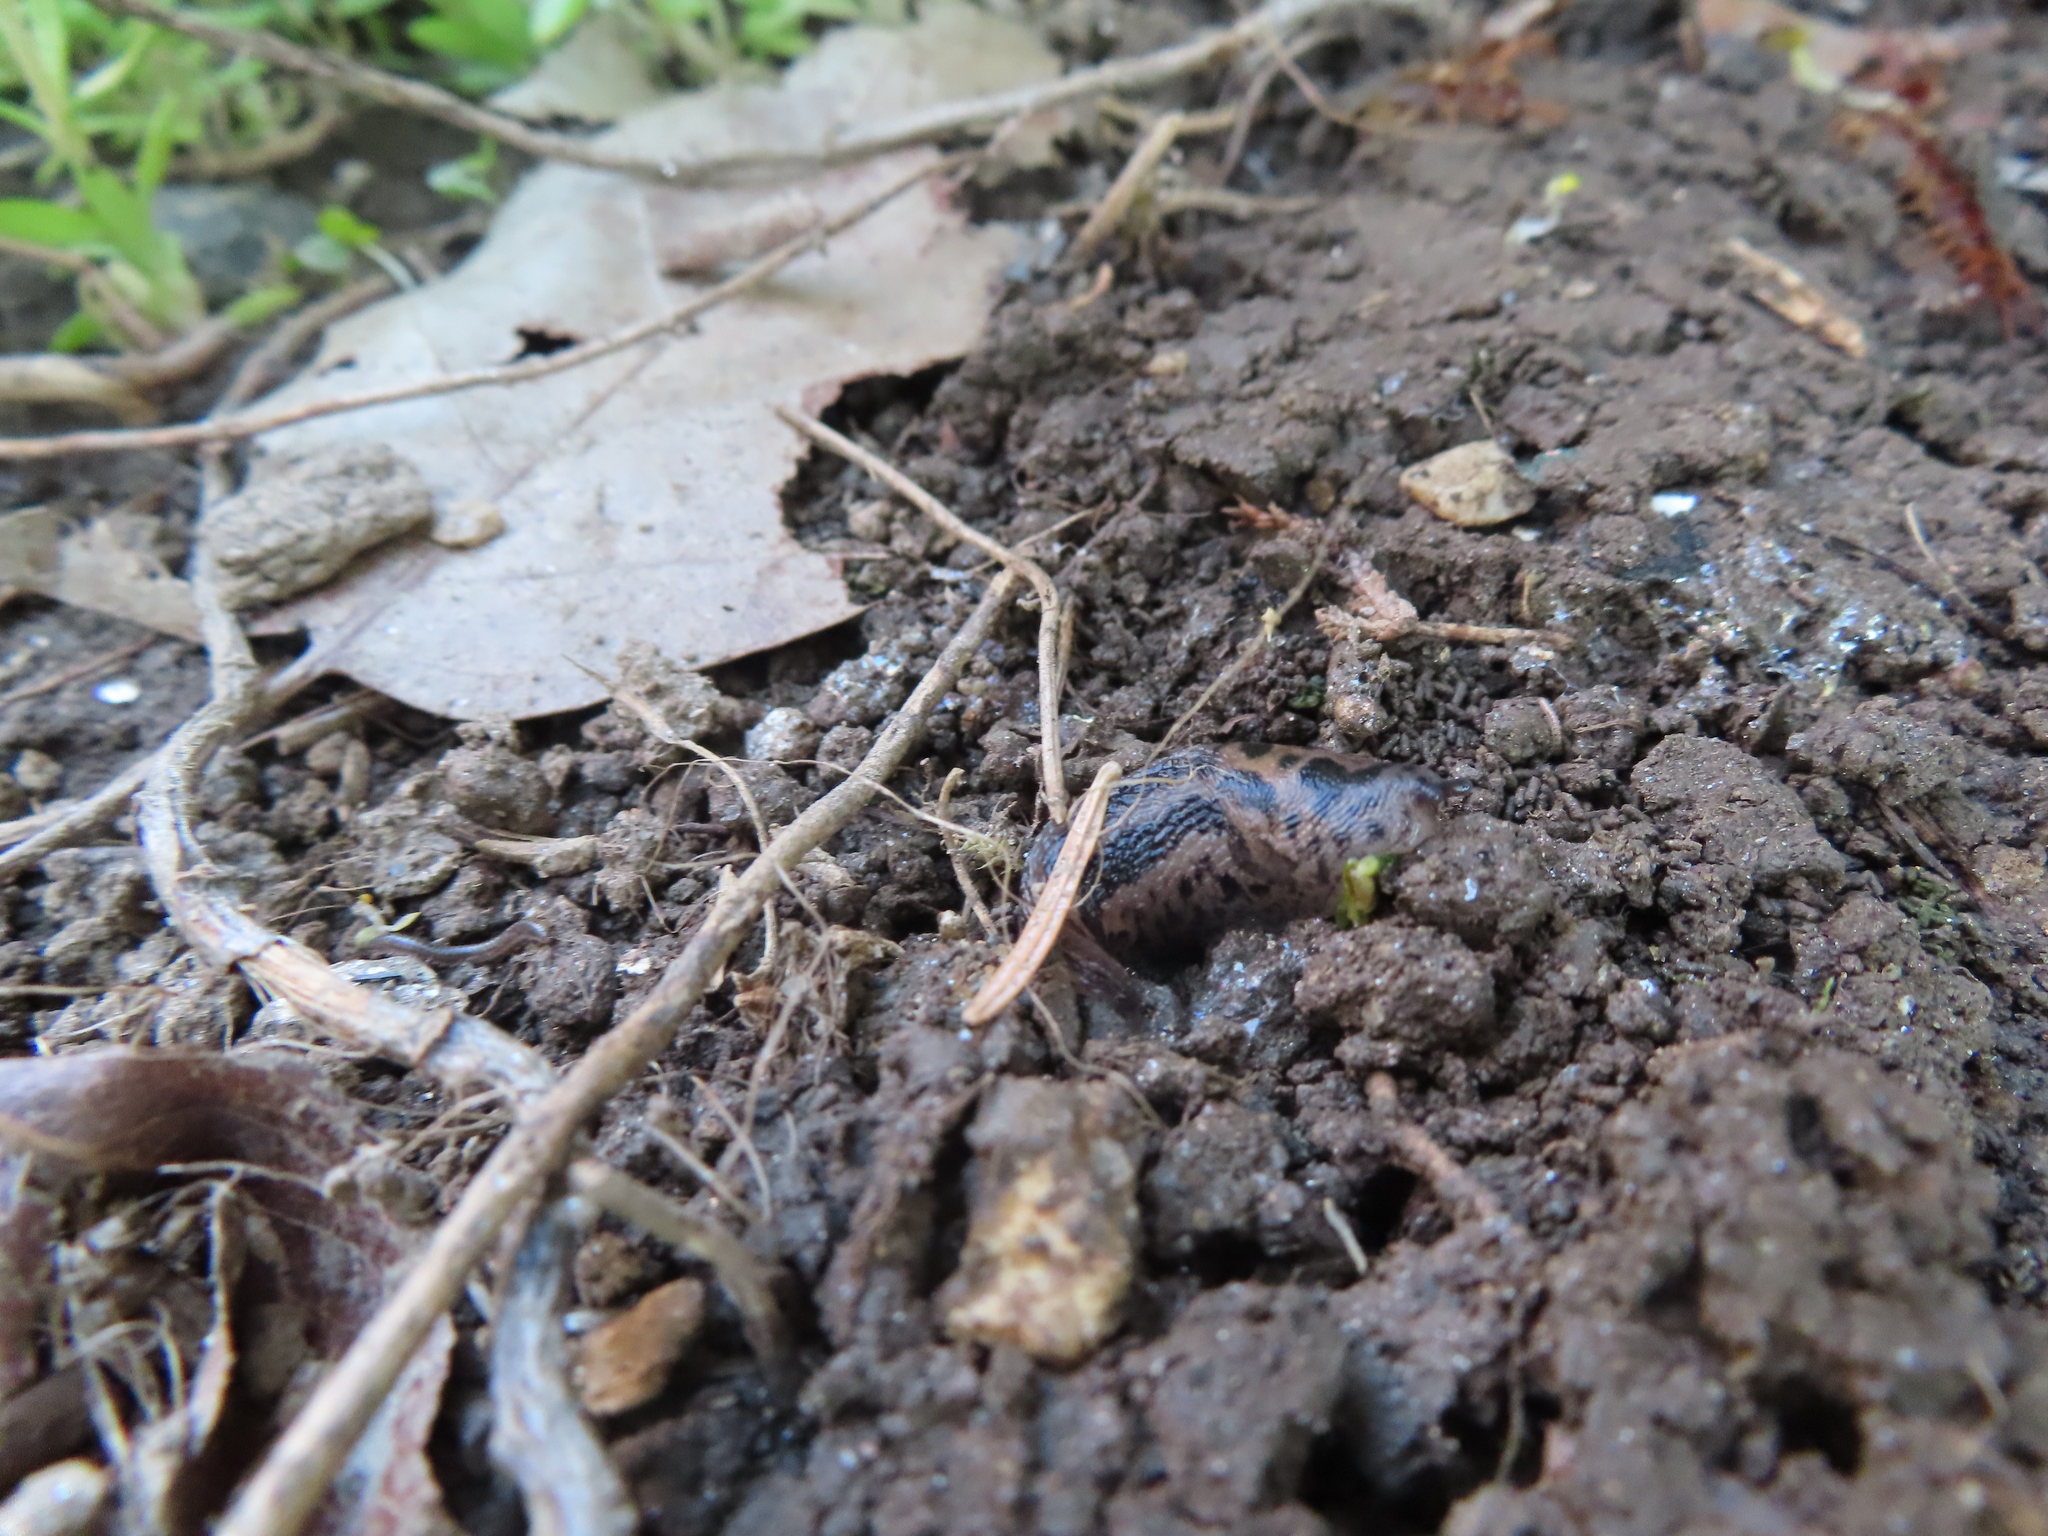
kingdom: Animalia
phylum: Mollusca
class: Gastropoda
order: Stylommatophora
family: Limacidae
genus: Limax
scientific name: Limax maximus
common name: Great grey slug
